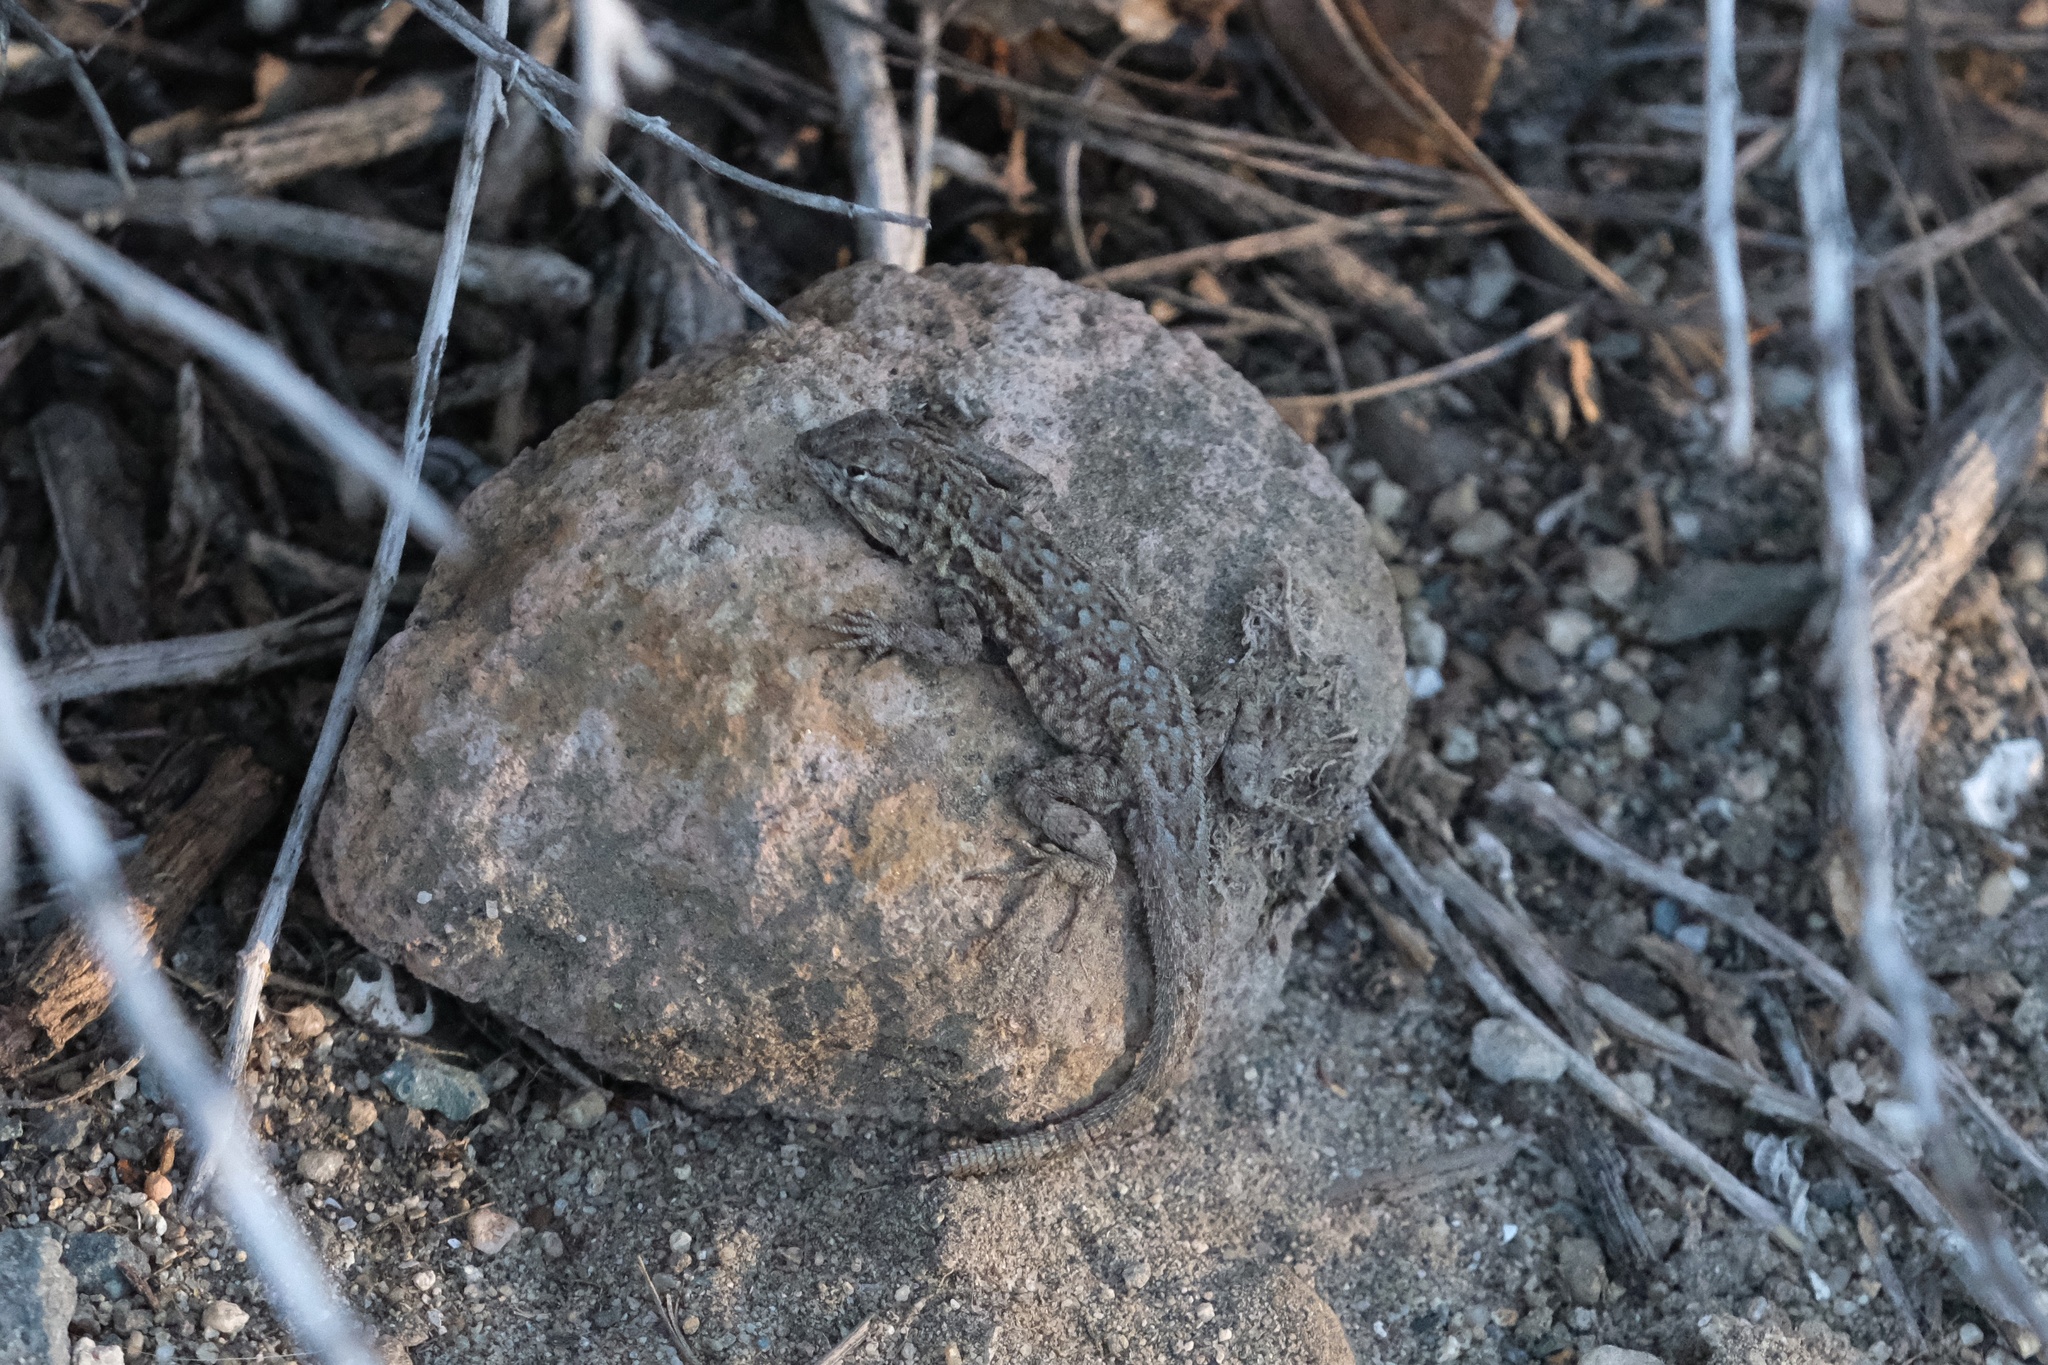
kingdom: Animalia
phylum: Chordata
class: Squamata
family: Phrynosomatidae
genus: Uta
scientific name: Uta stansburiana
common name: Side-blotched lizard
